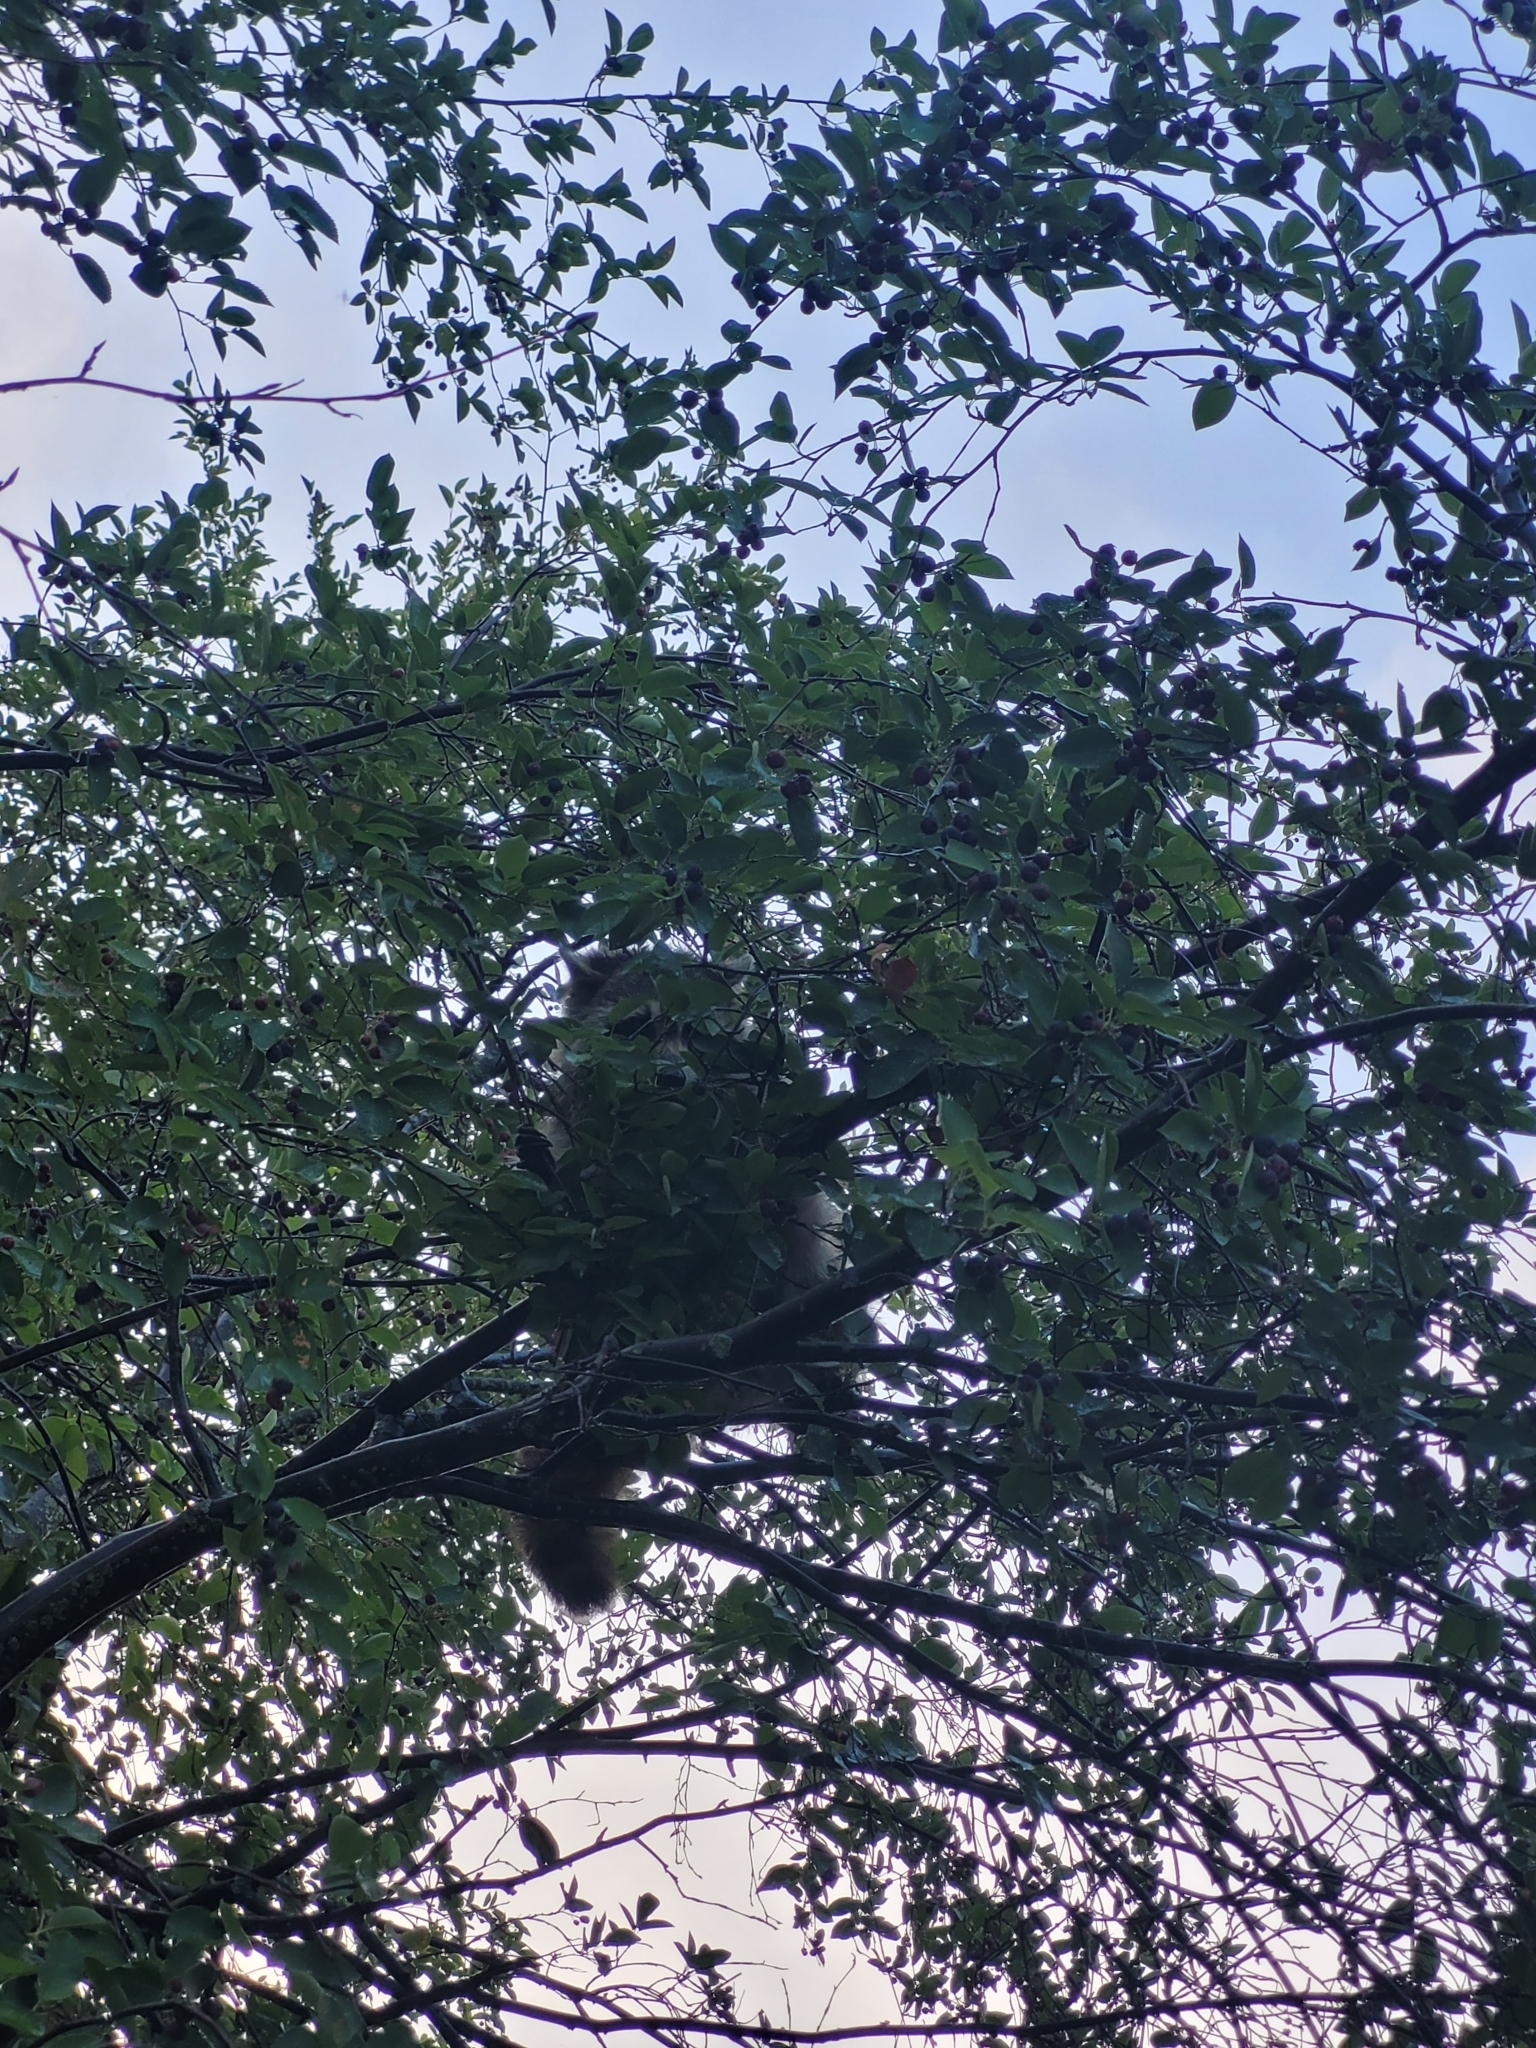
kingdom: Animalia
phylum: Chordata
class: Mammalia
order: Carnivora
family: Procyonidae
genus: Procyon
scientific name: Procyon lotor
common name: Raccoon
